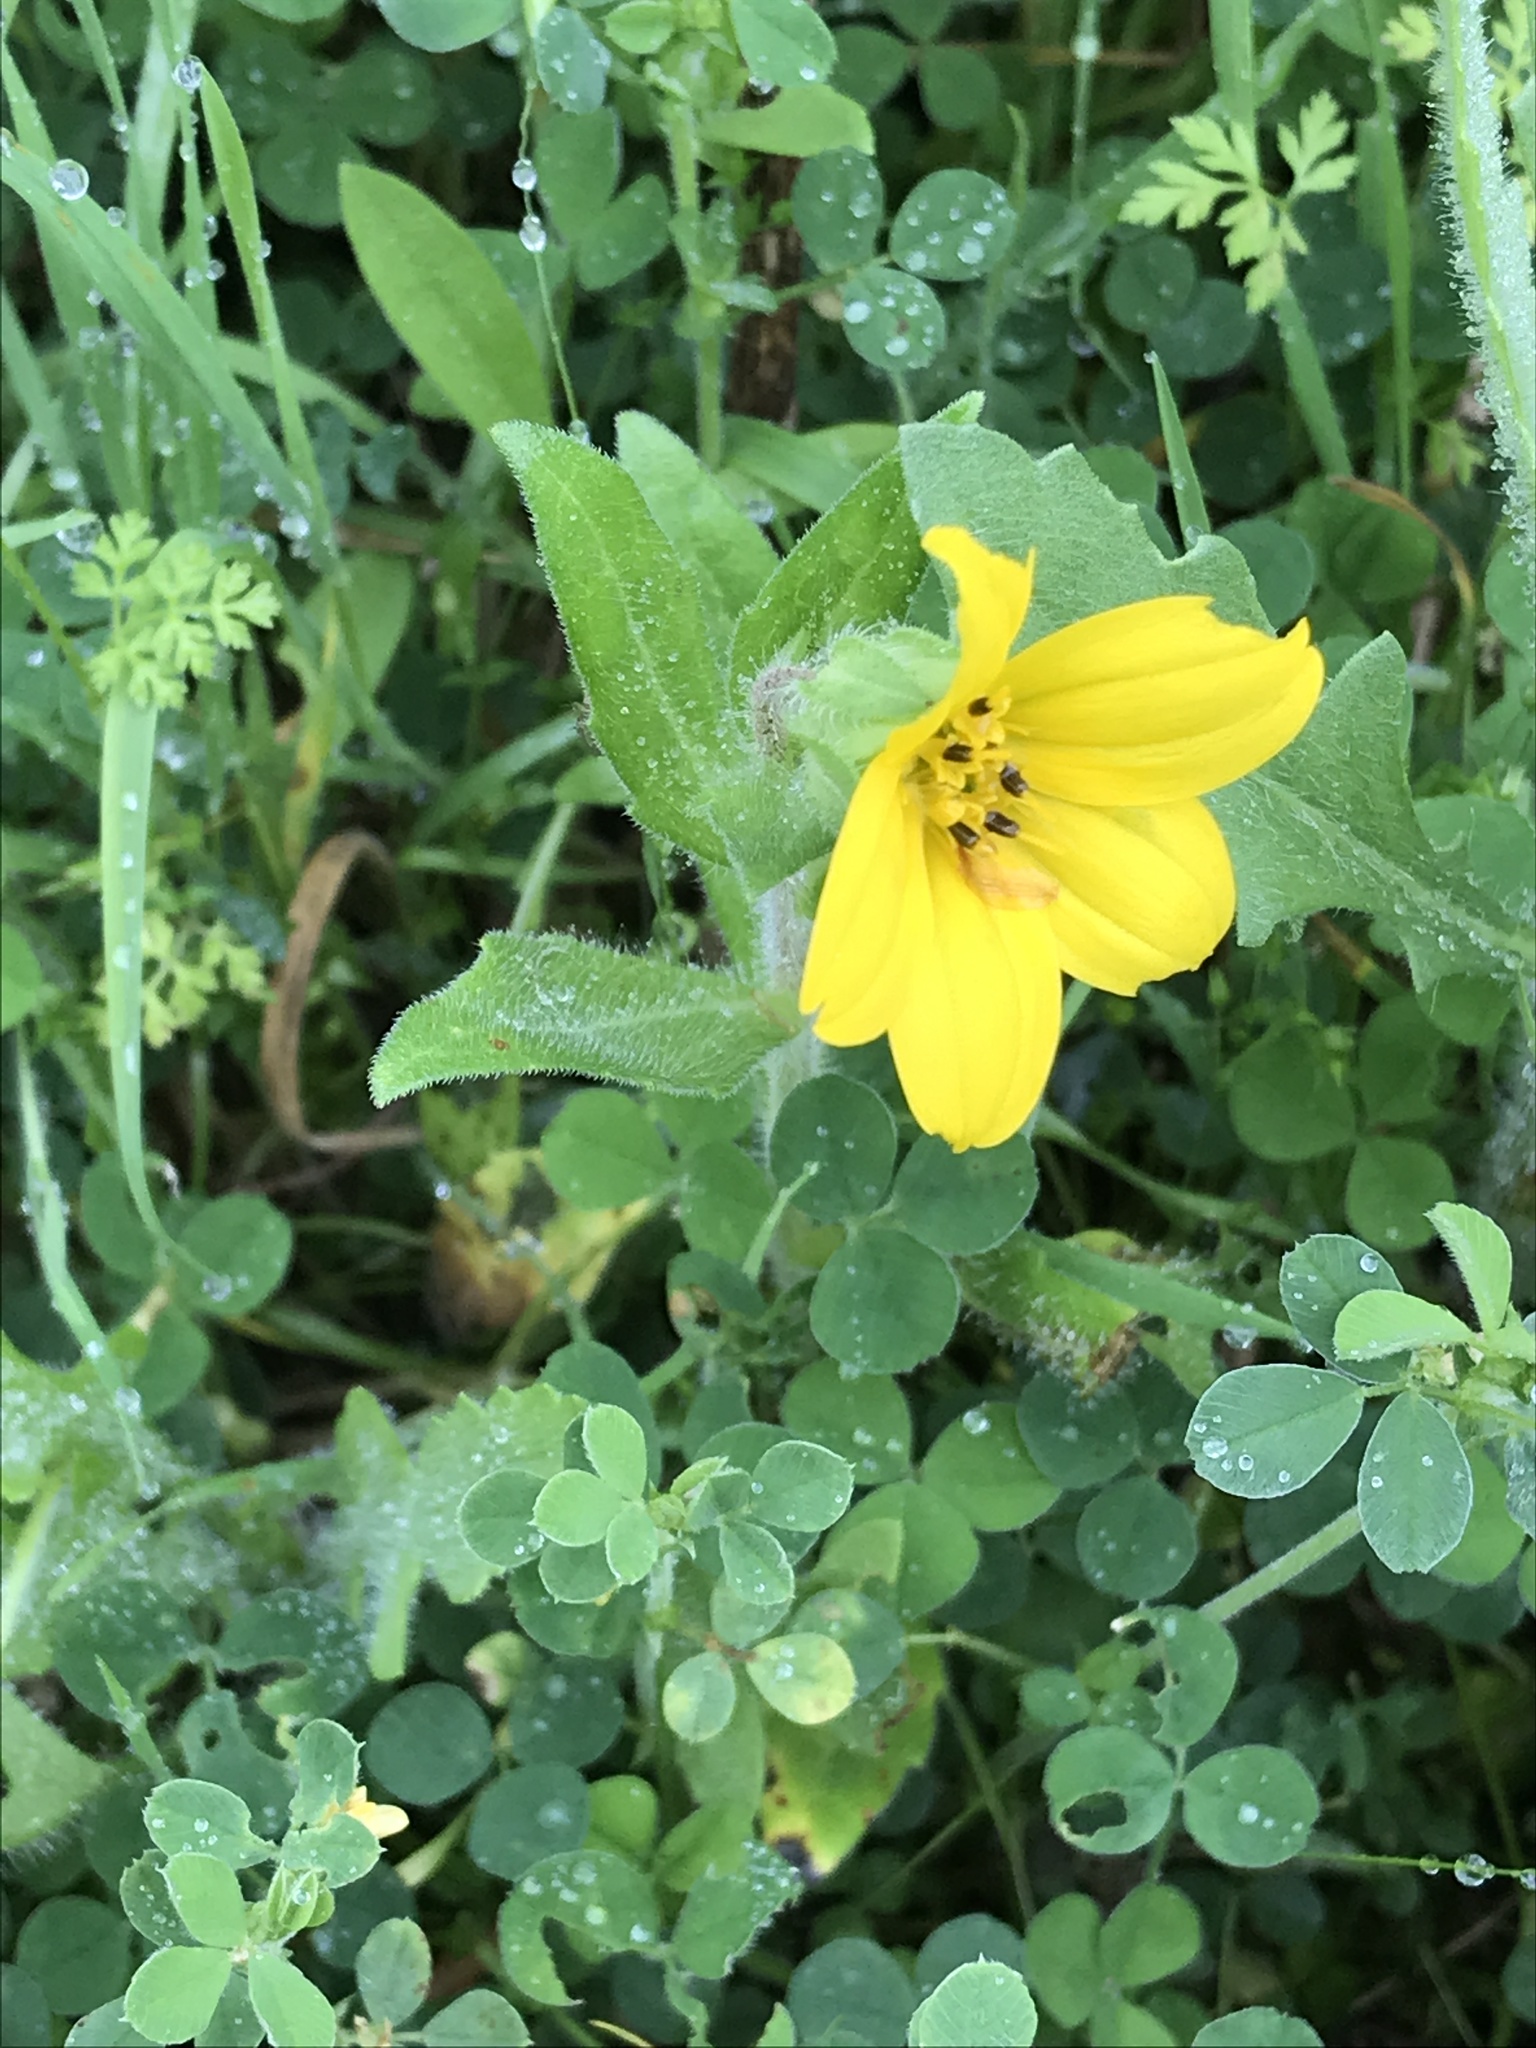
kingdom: Plantae
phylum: Tracheophyta
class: Magnoliopsida
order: Asterales
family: Asteraceae
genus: Lindheimera
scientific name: Lindheimera texana
